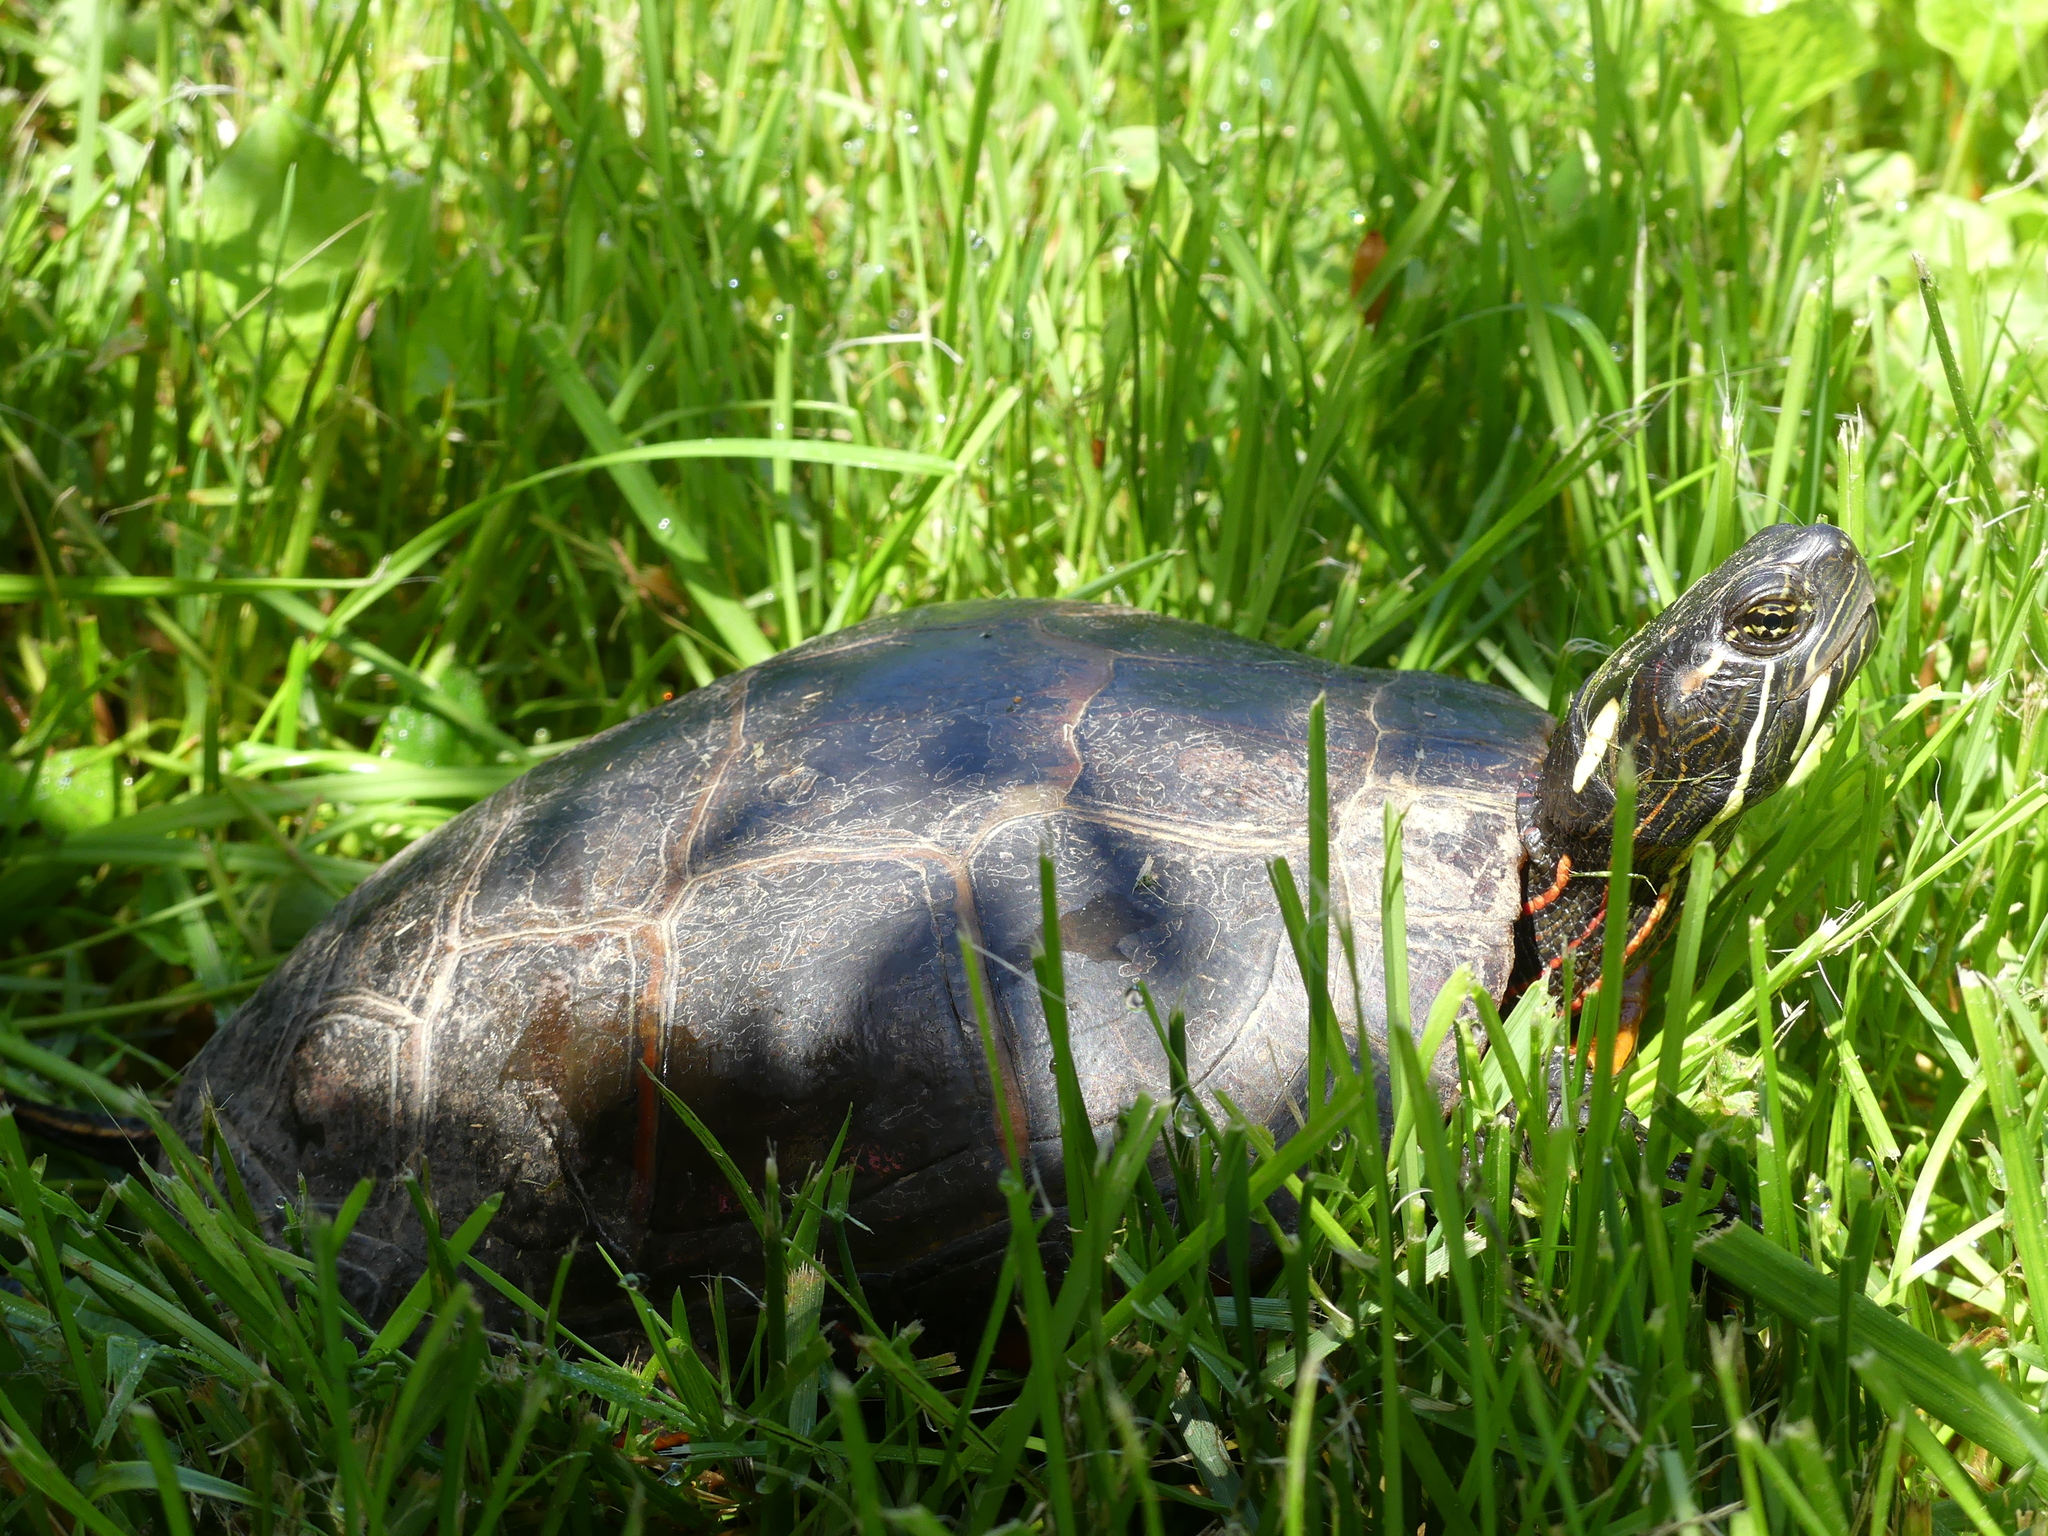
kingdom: Animalia
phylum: Chordata
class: Testudines
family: Emydidae
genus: Chrysemys
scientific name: Chrysemys picta
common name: Painted turtle
